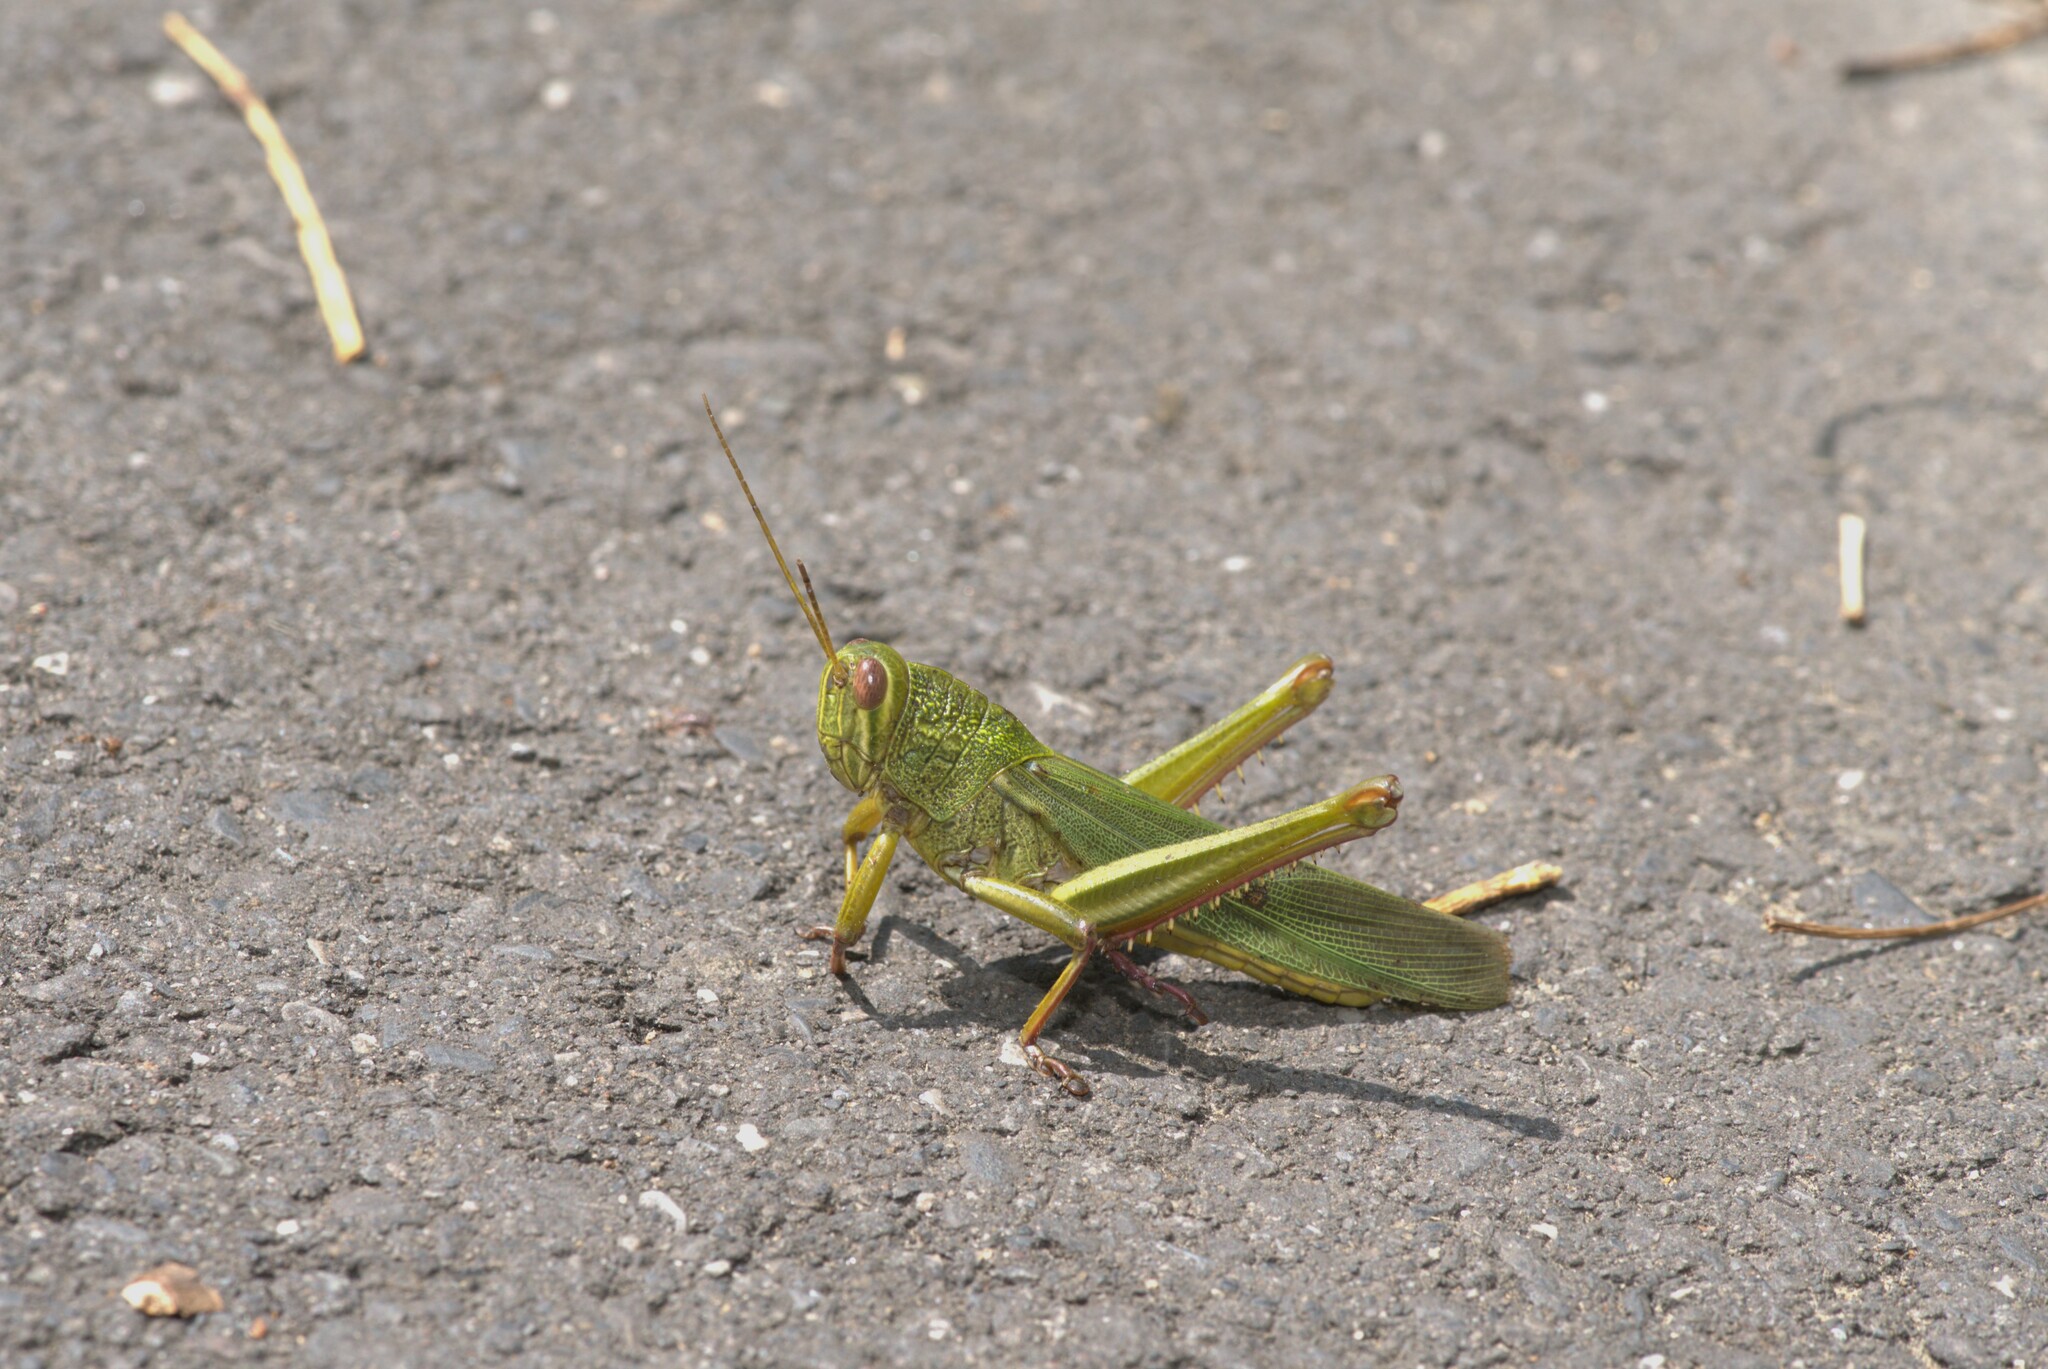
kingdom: Animalia
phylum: Arthropoda
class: Insecta
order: Orthoptera
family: Acrididae
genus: Chondracris
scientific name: Chondracris rosea
